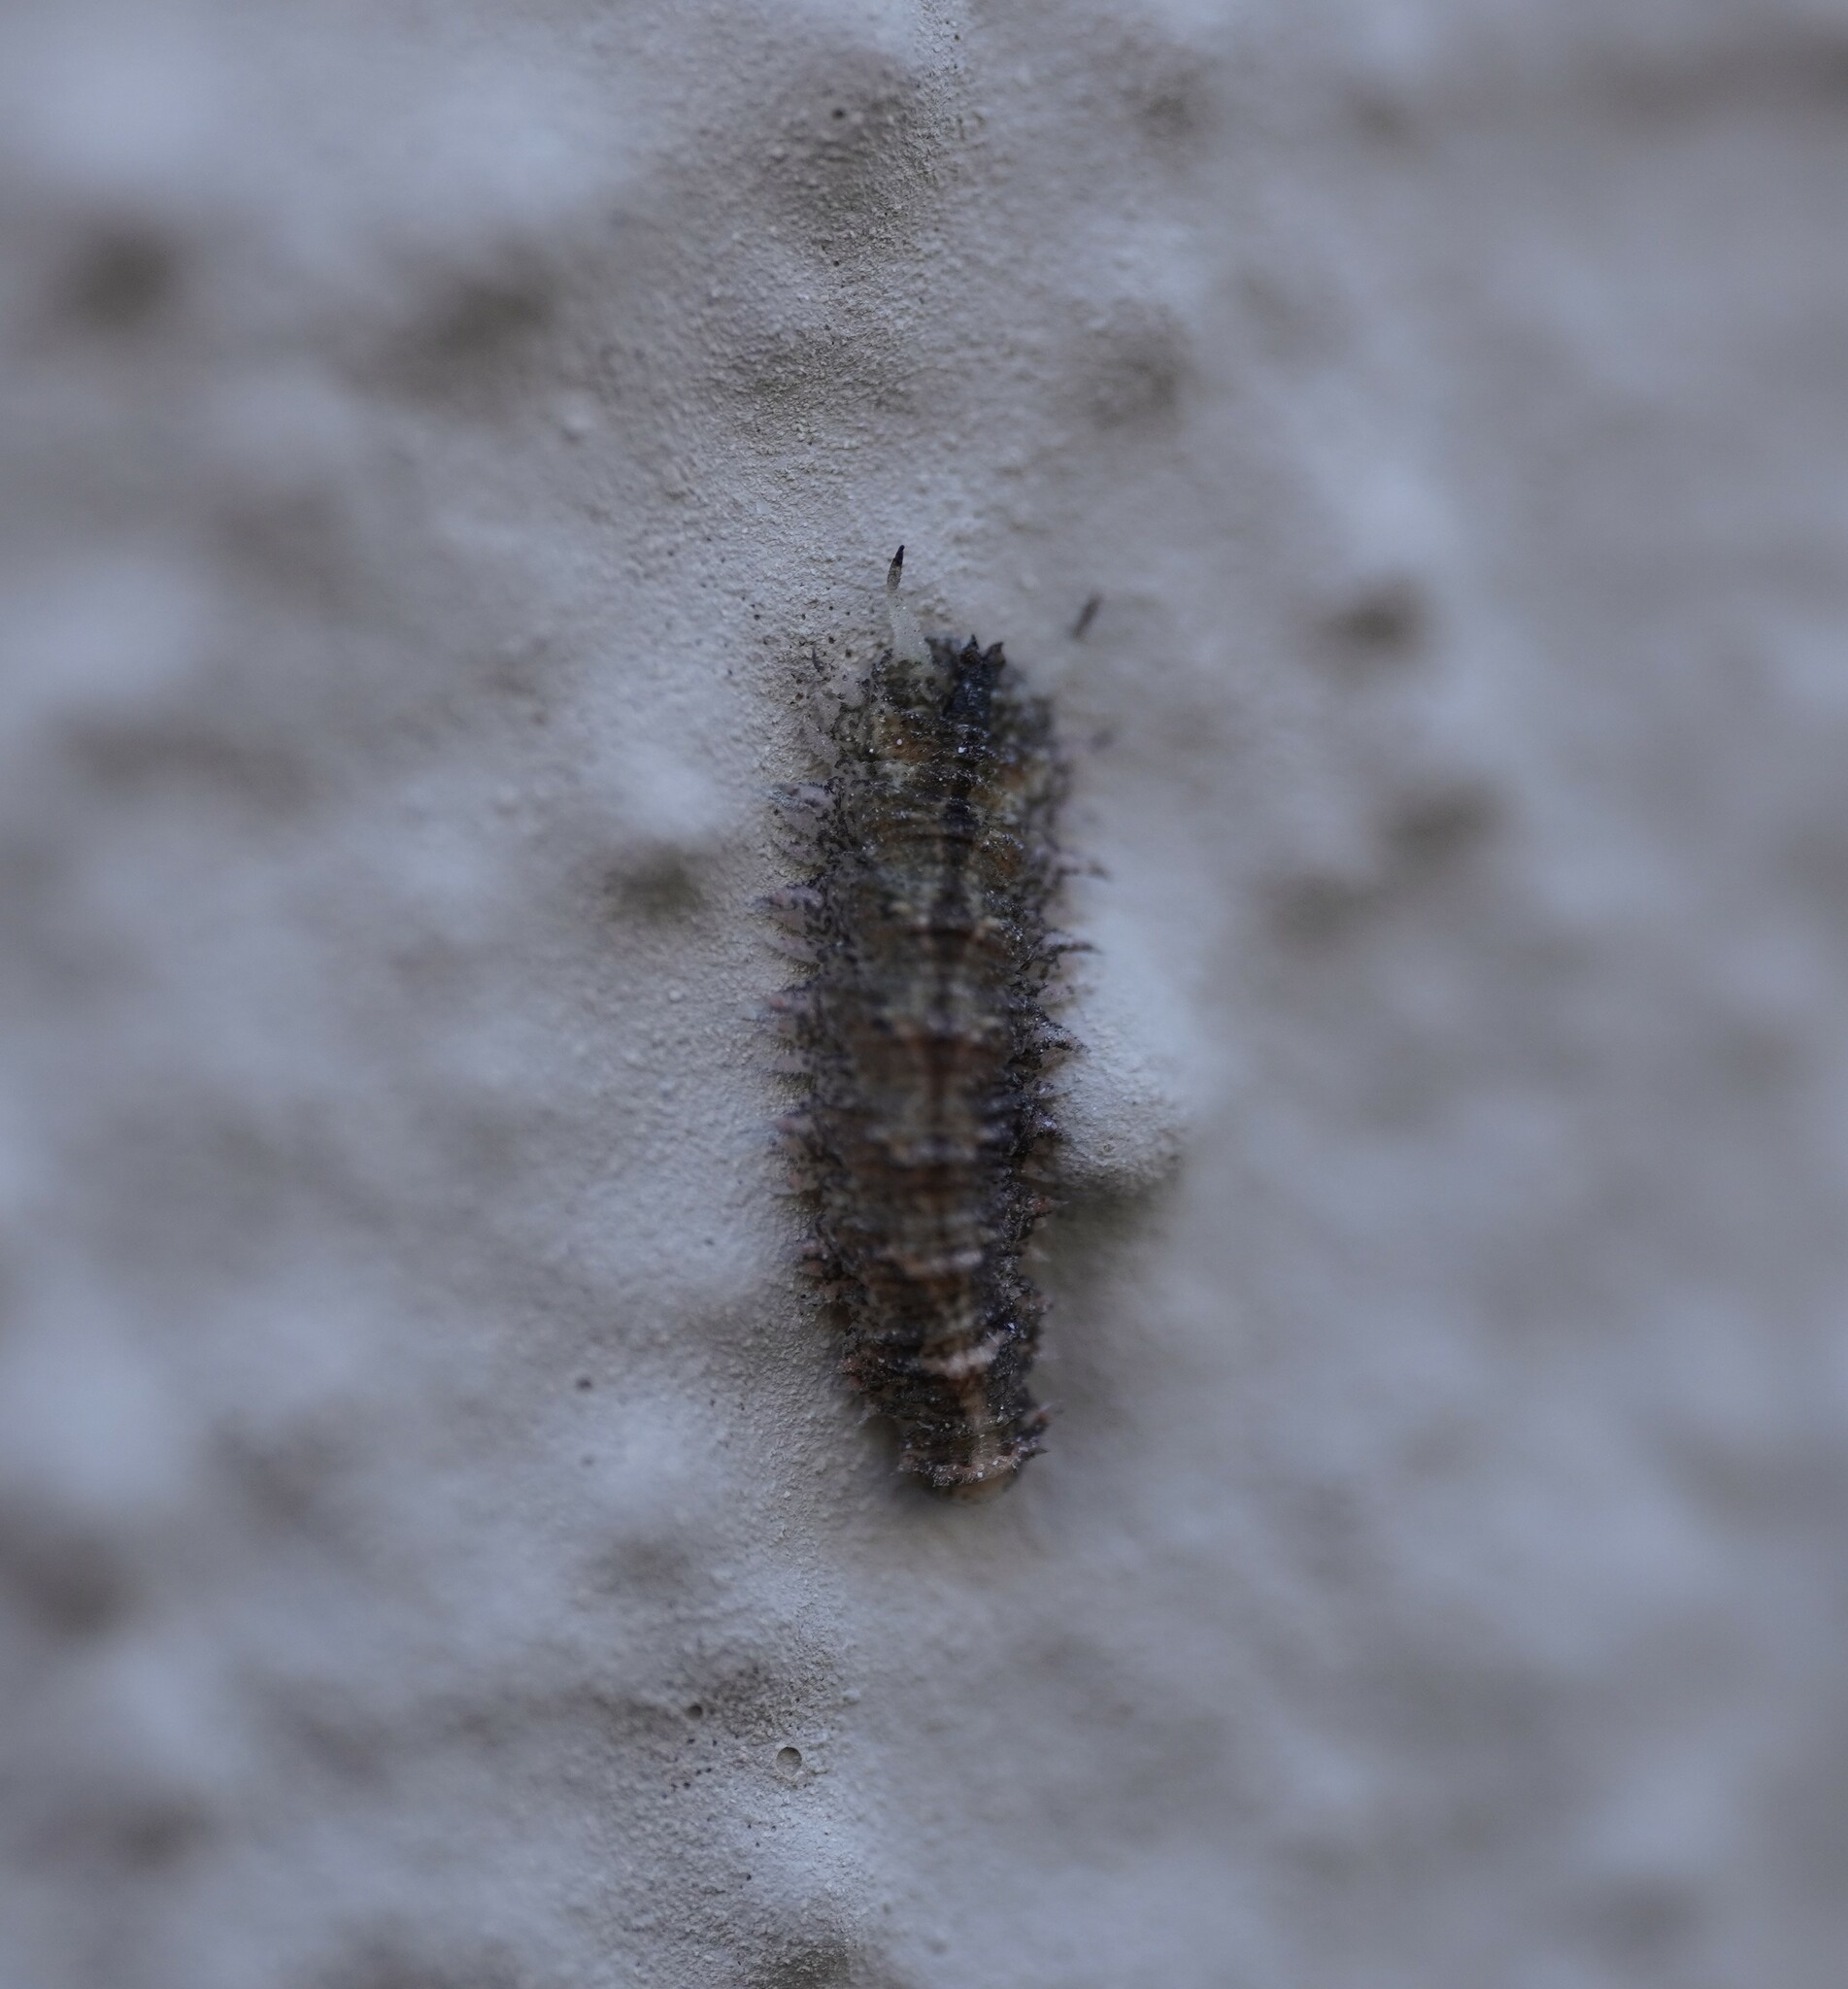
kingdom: Animalia
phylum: Arthropoda
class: Insecta
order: Diptera
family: Syrphidae
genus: Dasysyrphus
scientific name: Dasysyrphus
